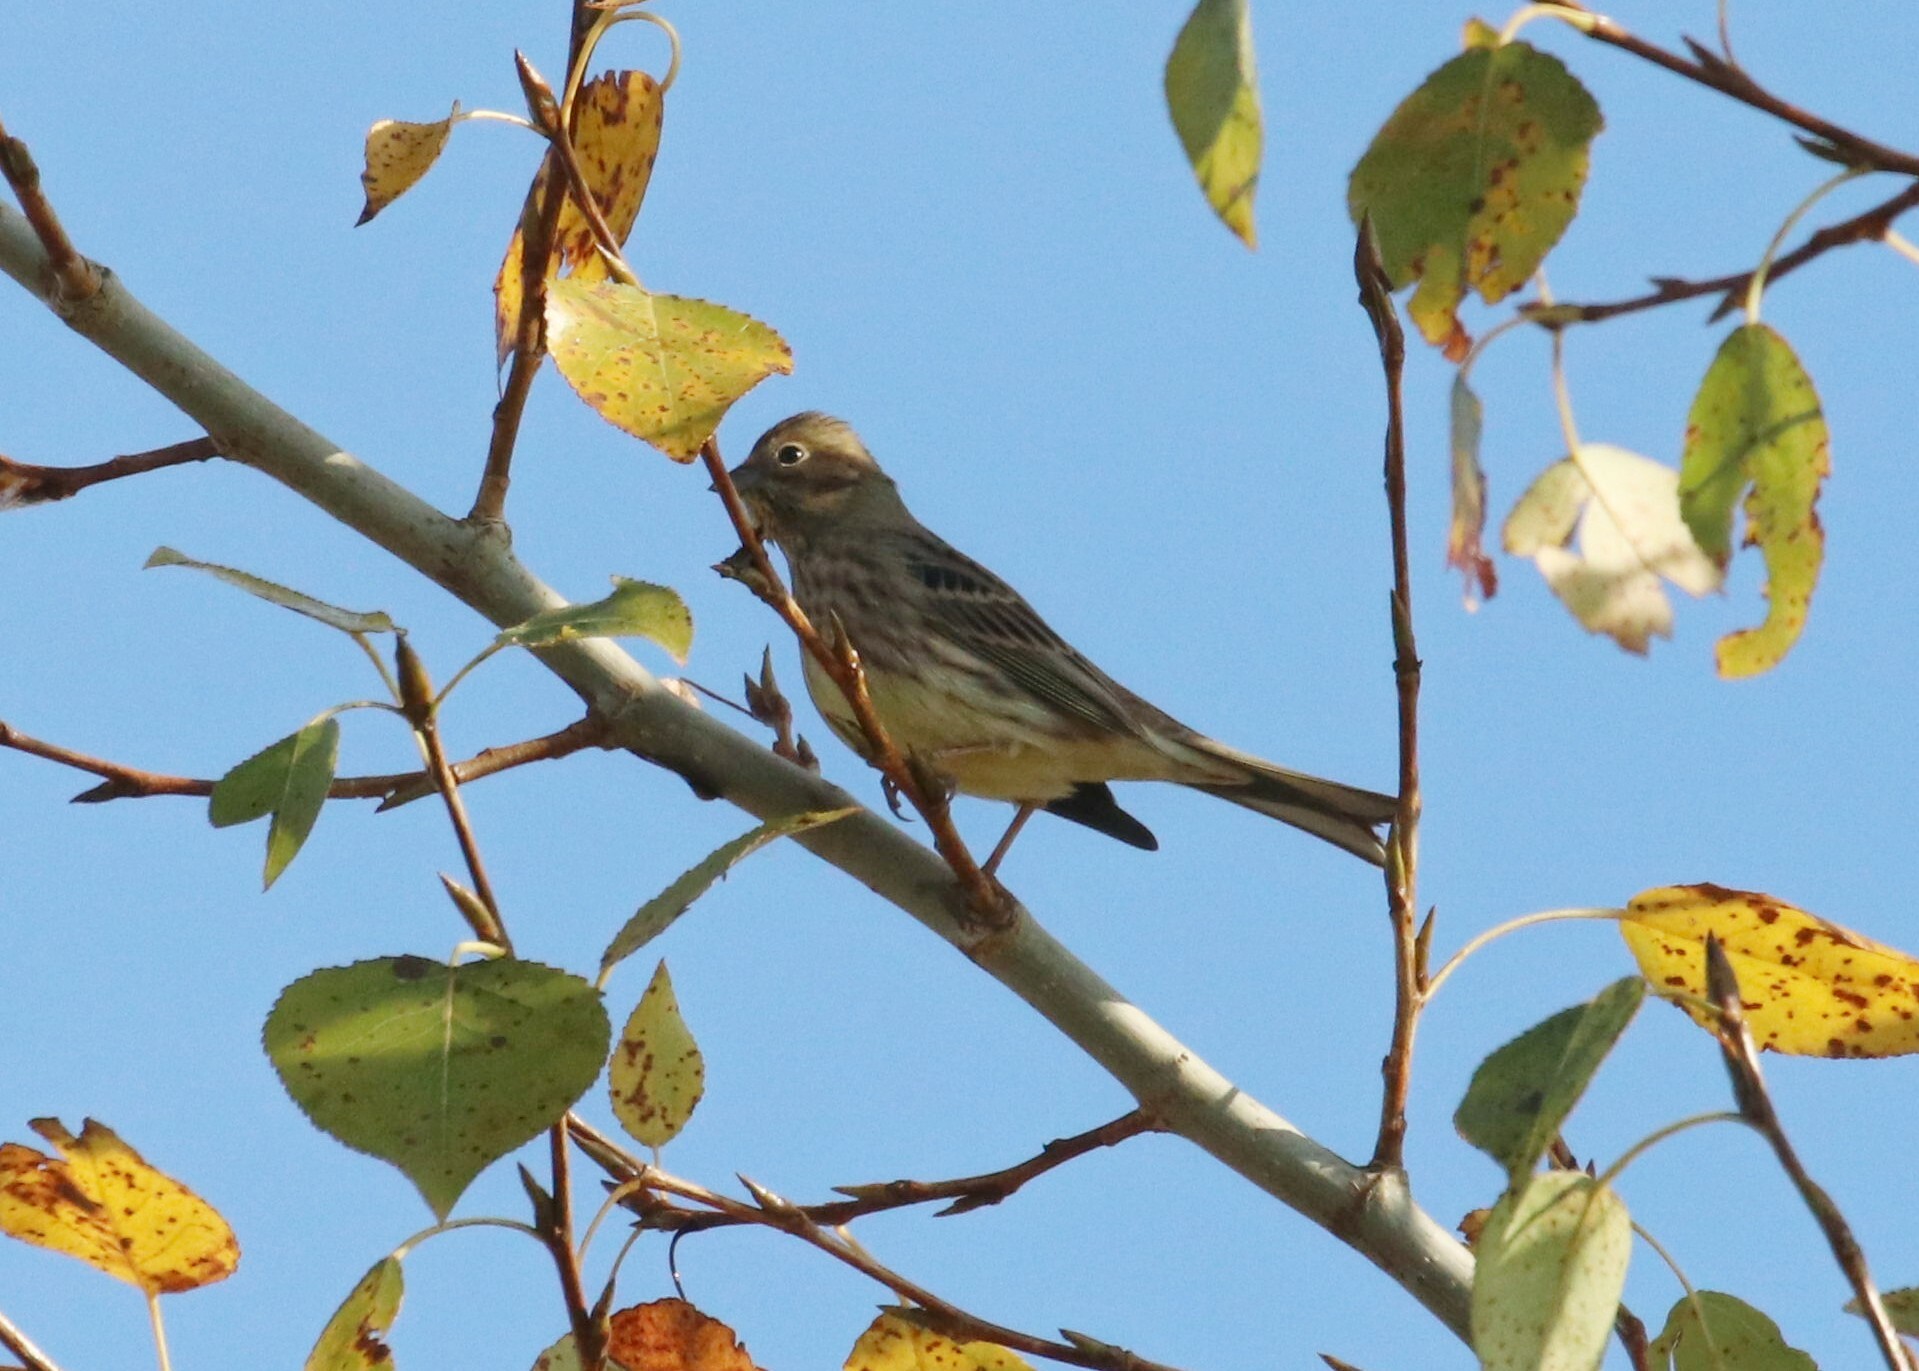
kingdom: Animalia
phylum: Chordata
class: Aves
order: Passeriformes
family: Emberizidae
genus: Emberiza
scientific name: Emberiza citrinella
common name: Yellowhammer
